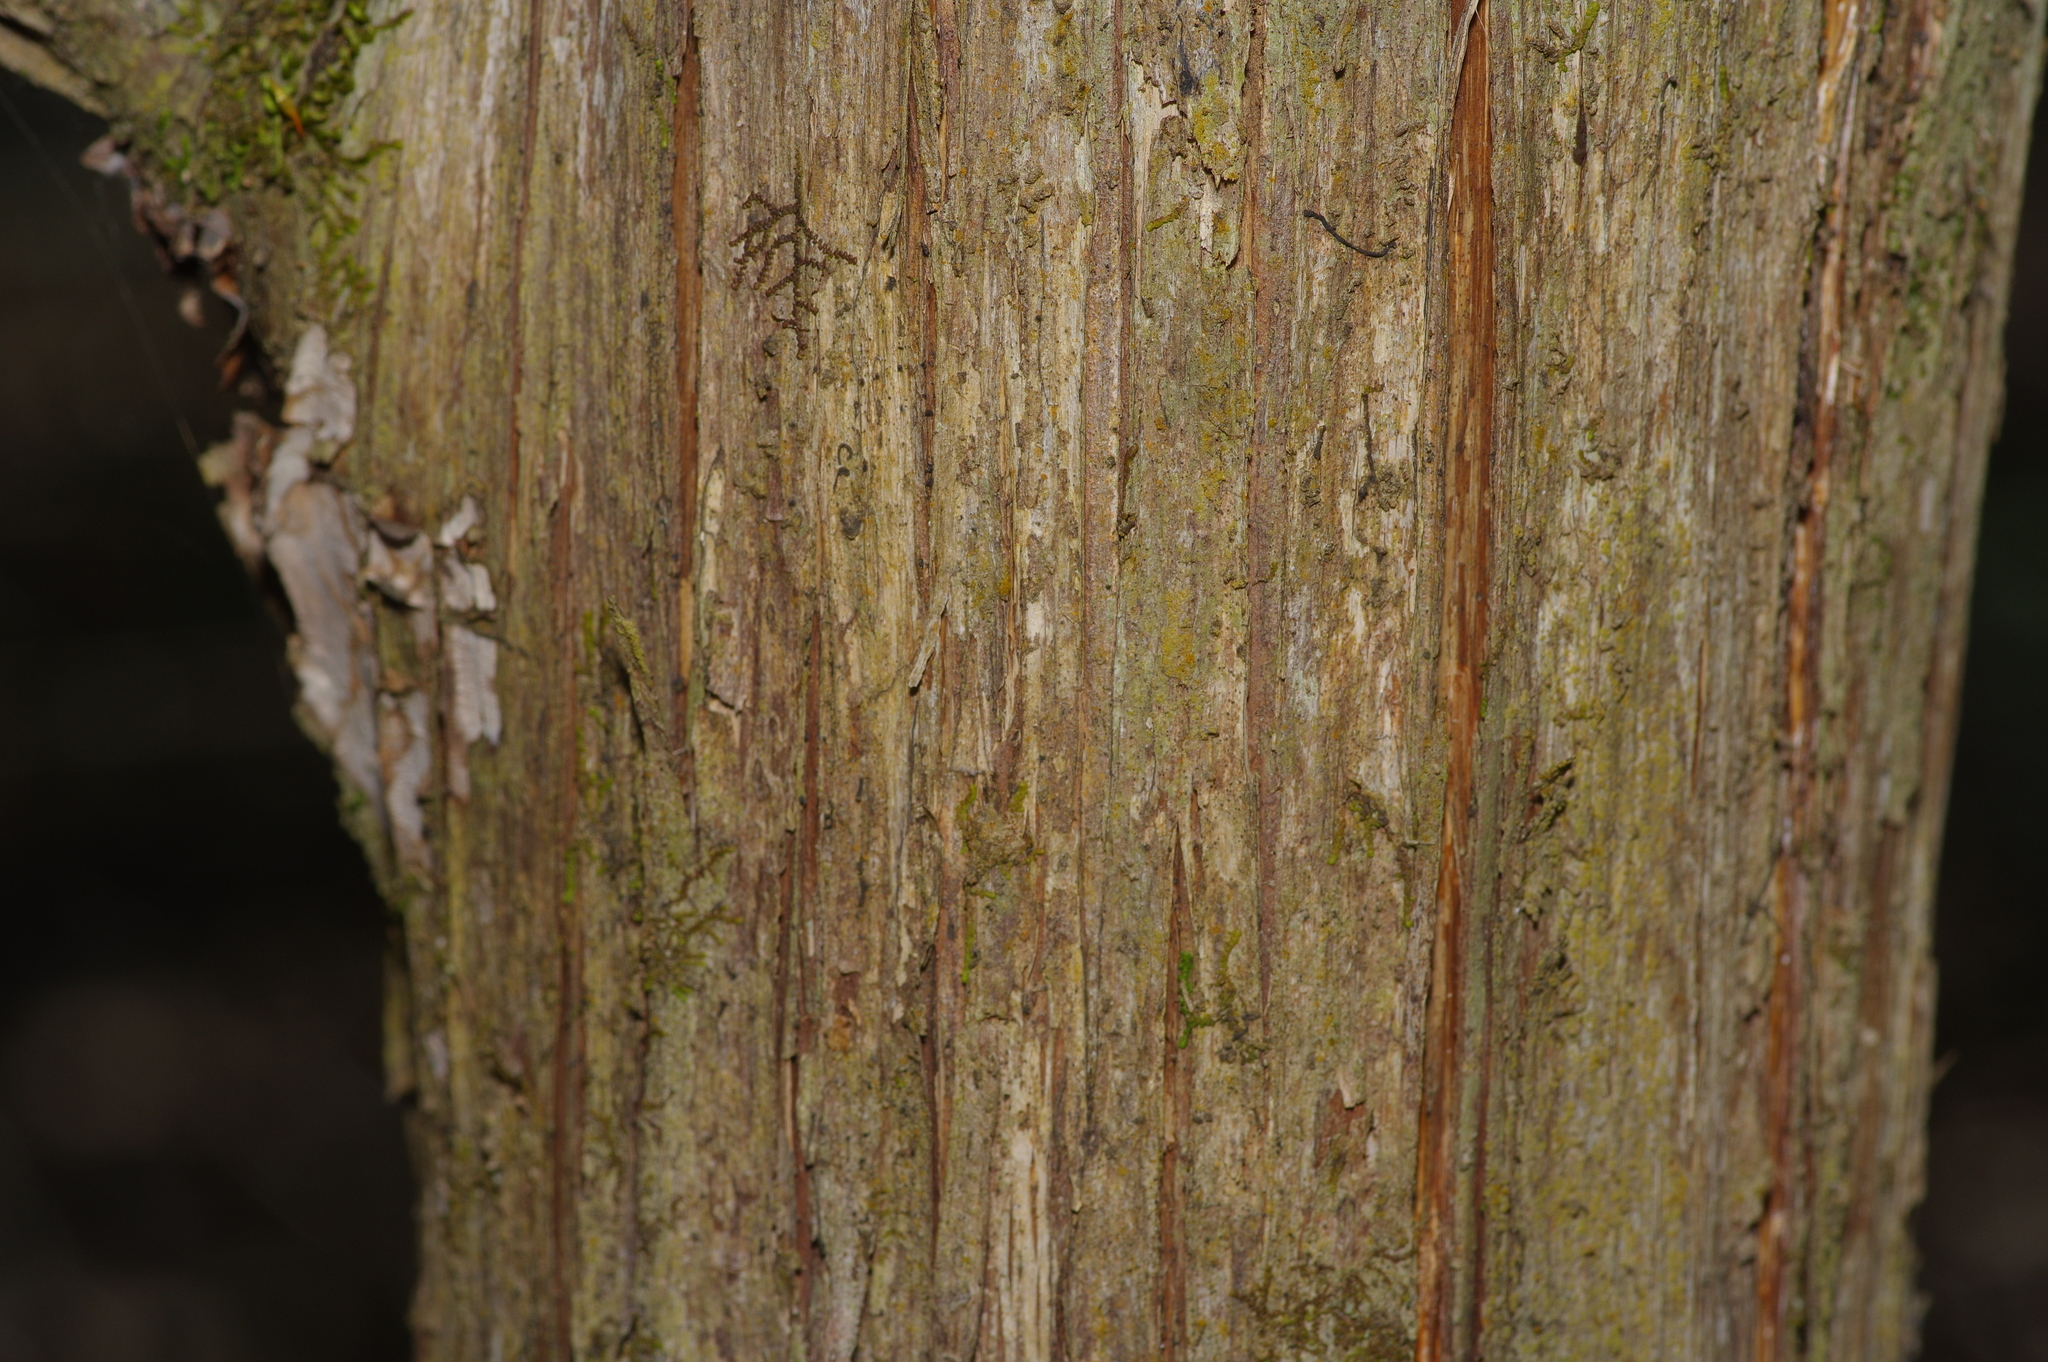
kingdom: Plantae
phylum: Tracheophyta
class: Pinopsida
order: Pinales
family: Cupressaceae
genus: Juniperus
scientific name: Juniperus virginiana
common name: Red juniper
